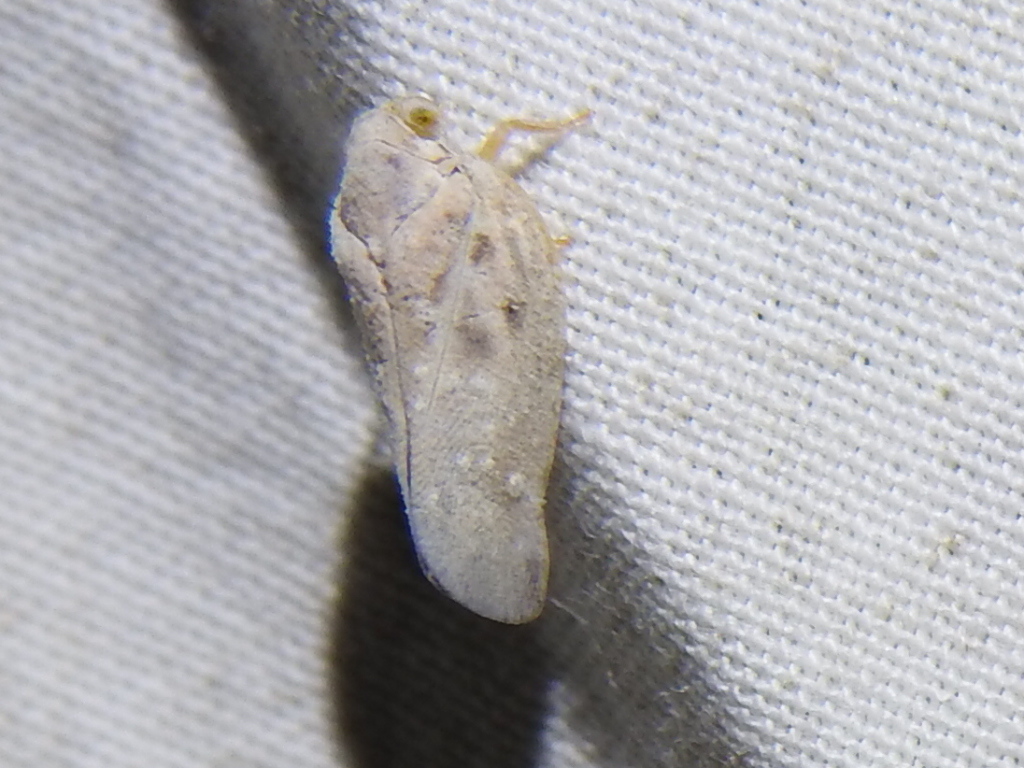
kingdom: Animalia
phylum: Arthropoda
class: Insecta
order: Hemiptera
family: Flatidae
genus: Metcalfa
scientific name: Metcalfa pruinosa
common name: Citrus flatid planthopper
